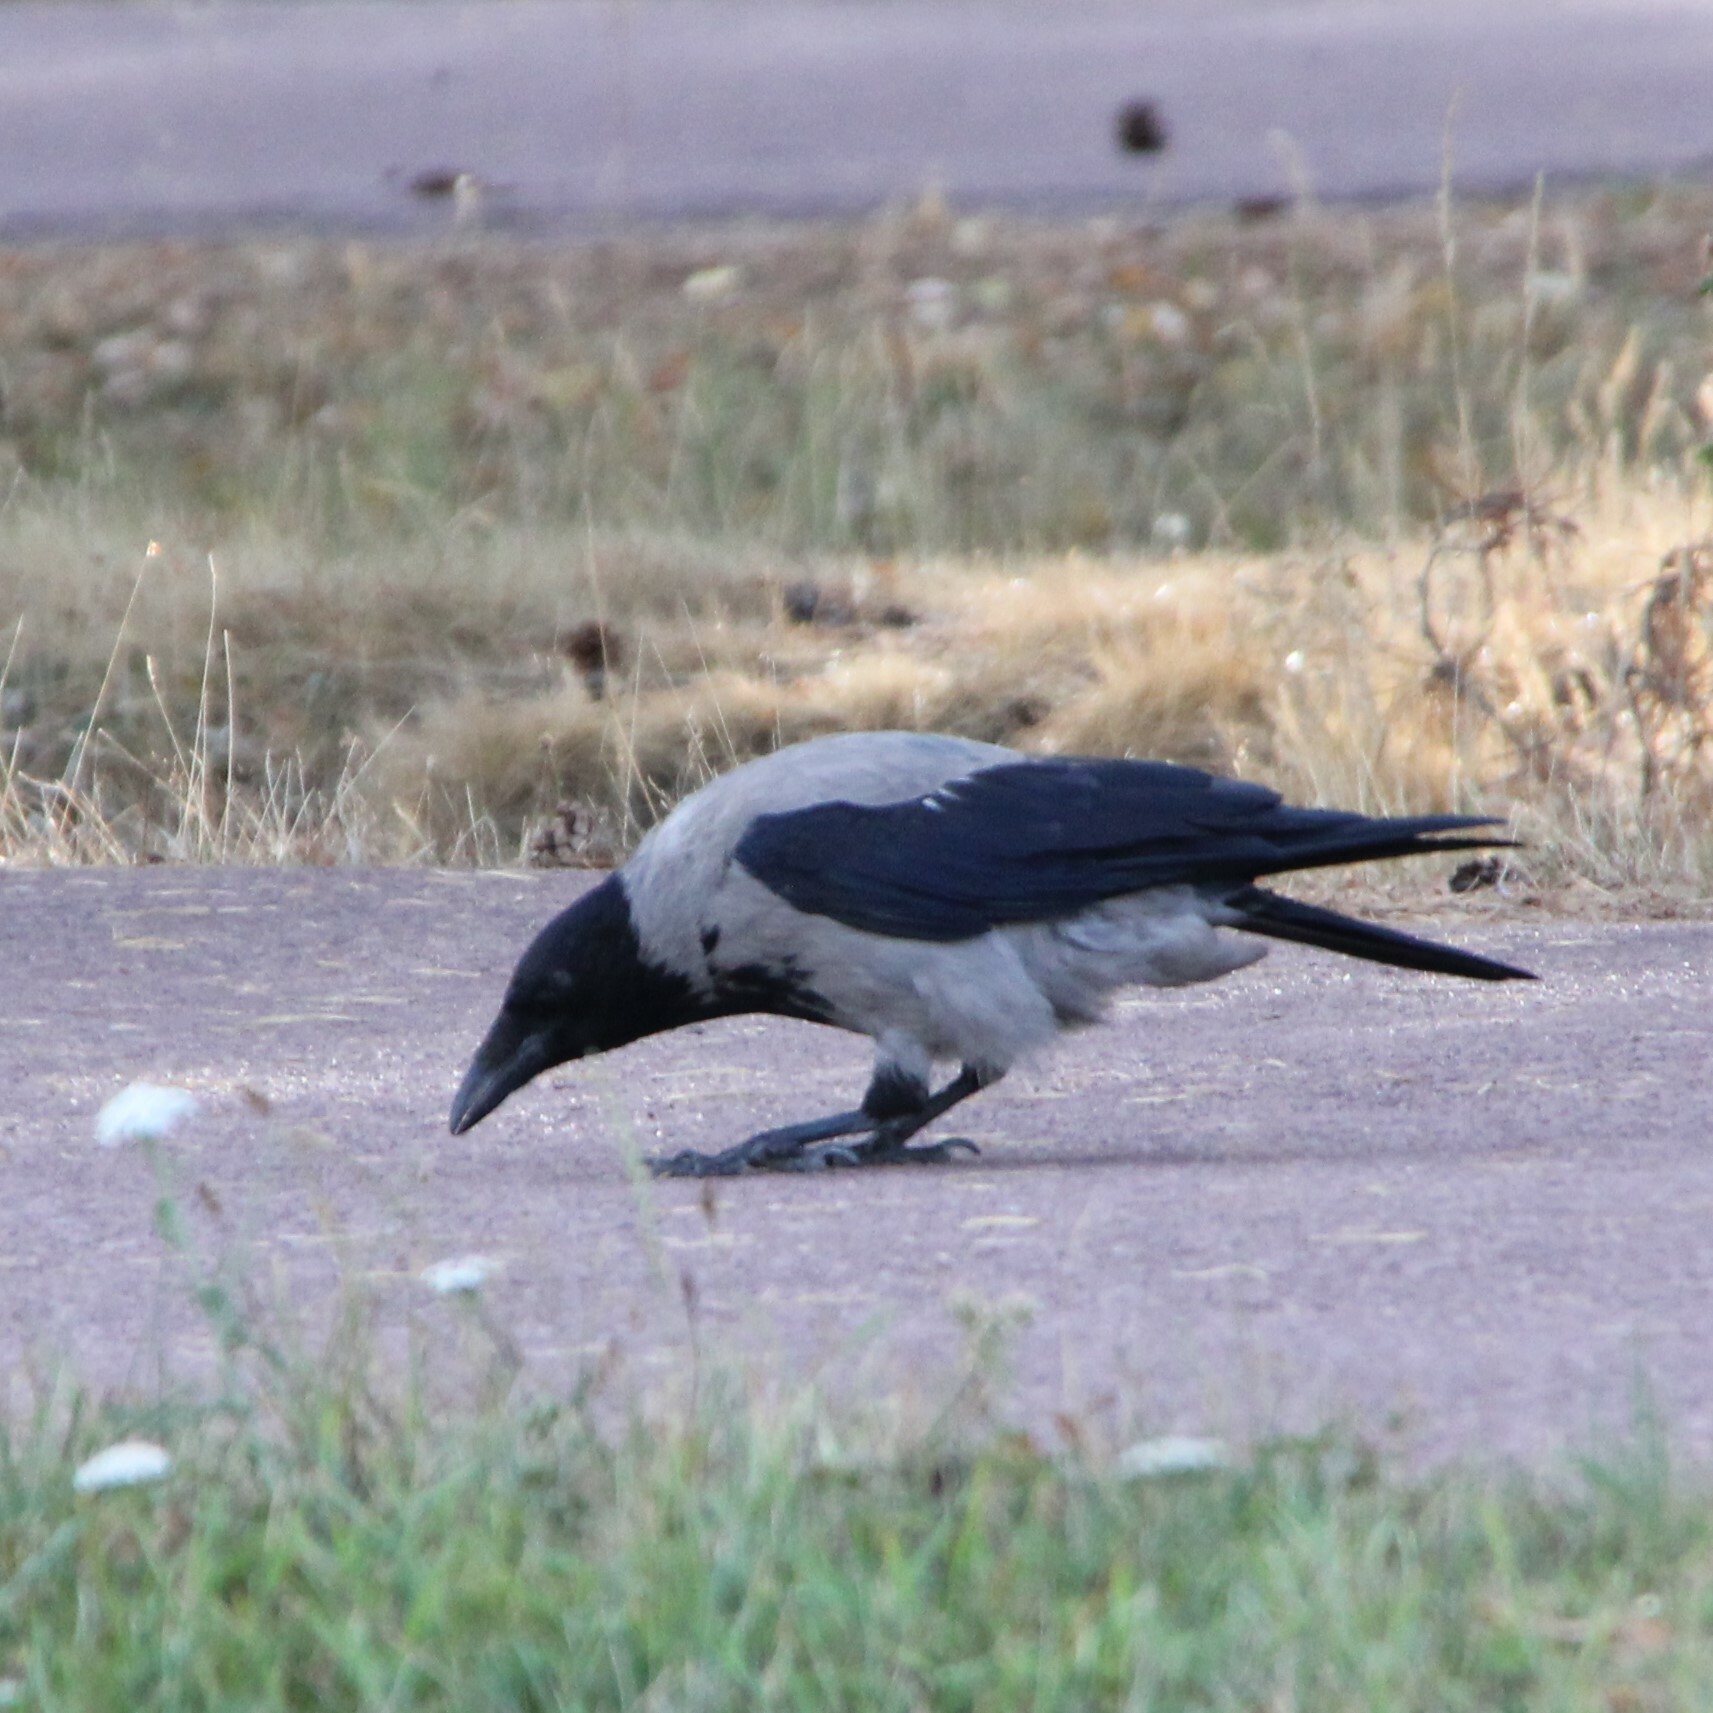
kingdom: Animalia
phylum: Chordata
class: Aves
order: Passeriformes
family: Corvidae
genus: Corvus
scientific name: Corvus cornix
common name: Hooded crow
